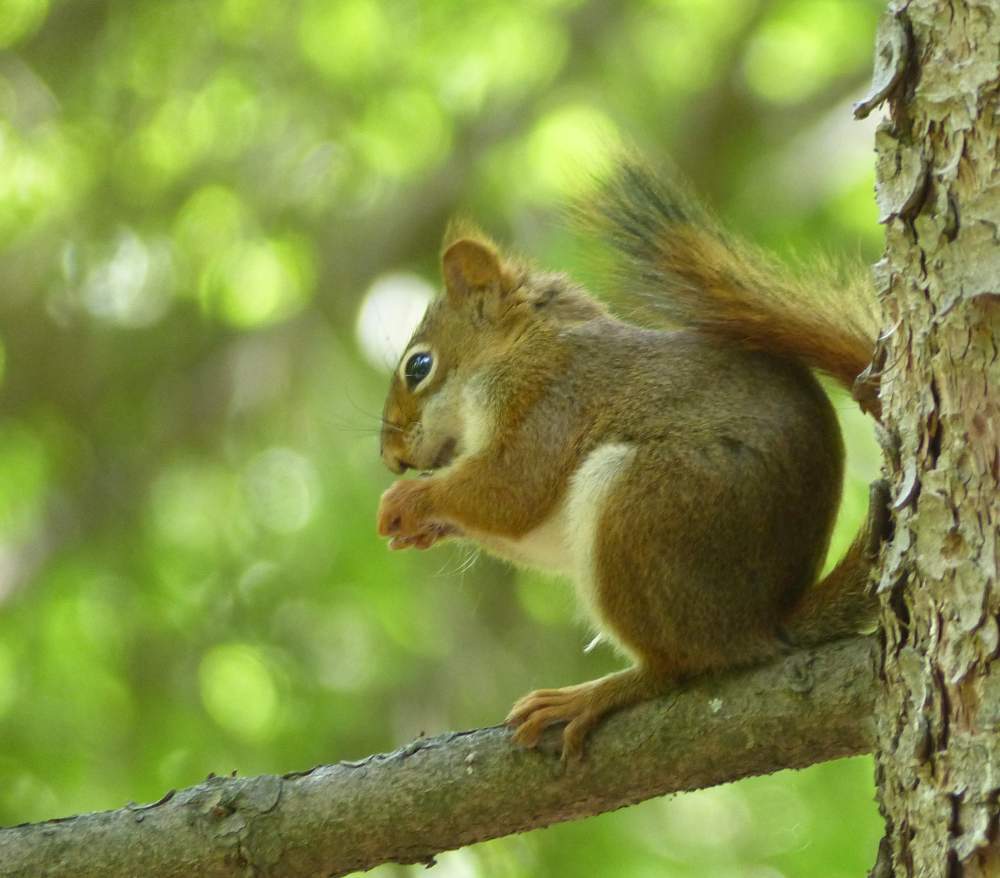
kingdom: Animalia
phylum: Chordata
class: Mammalia
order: Rodentia
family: Sciuridae
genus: Tamiasciurus
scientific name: Tamiasciurus hudsonicus
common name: Red squirrel
